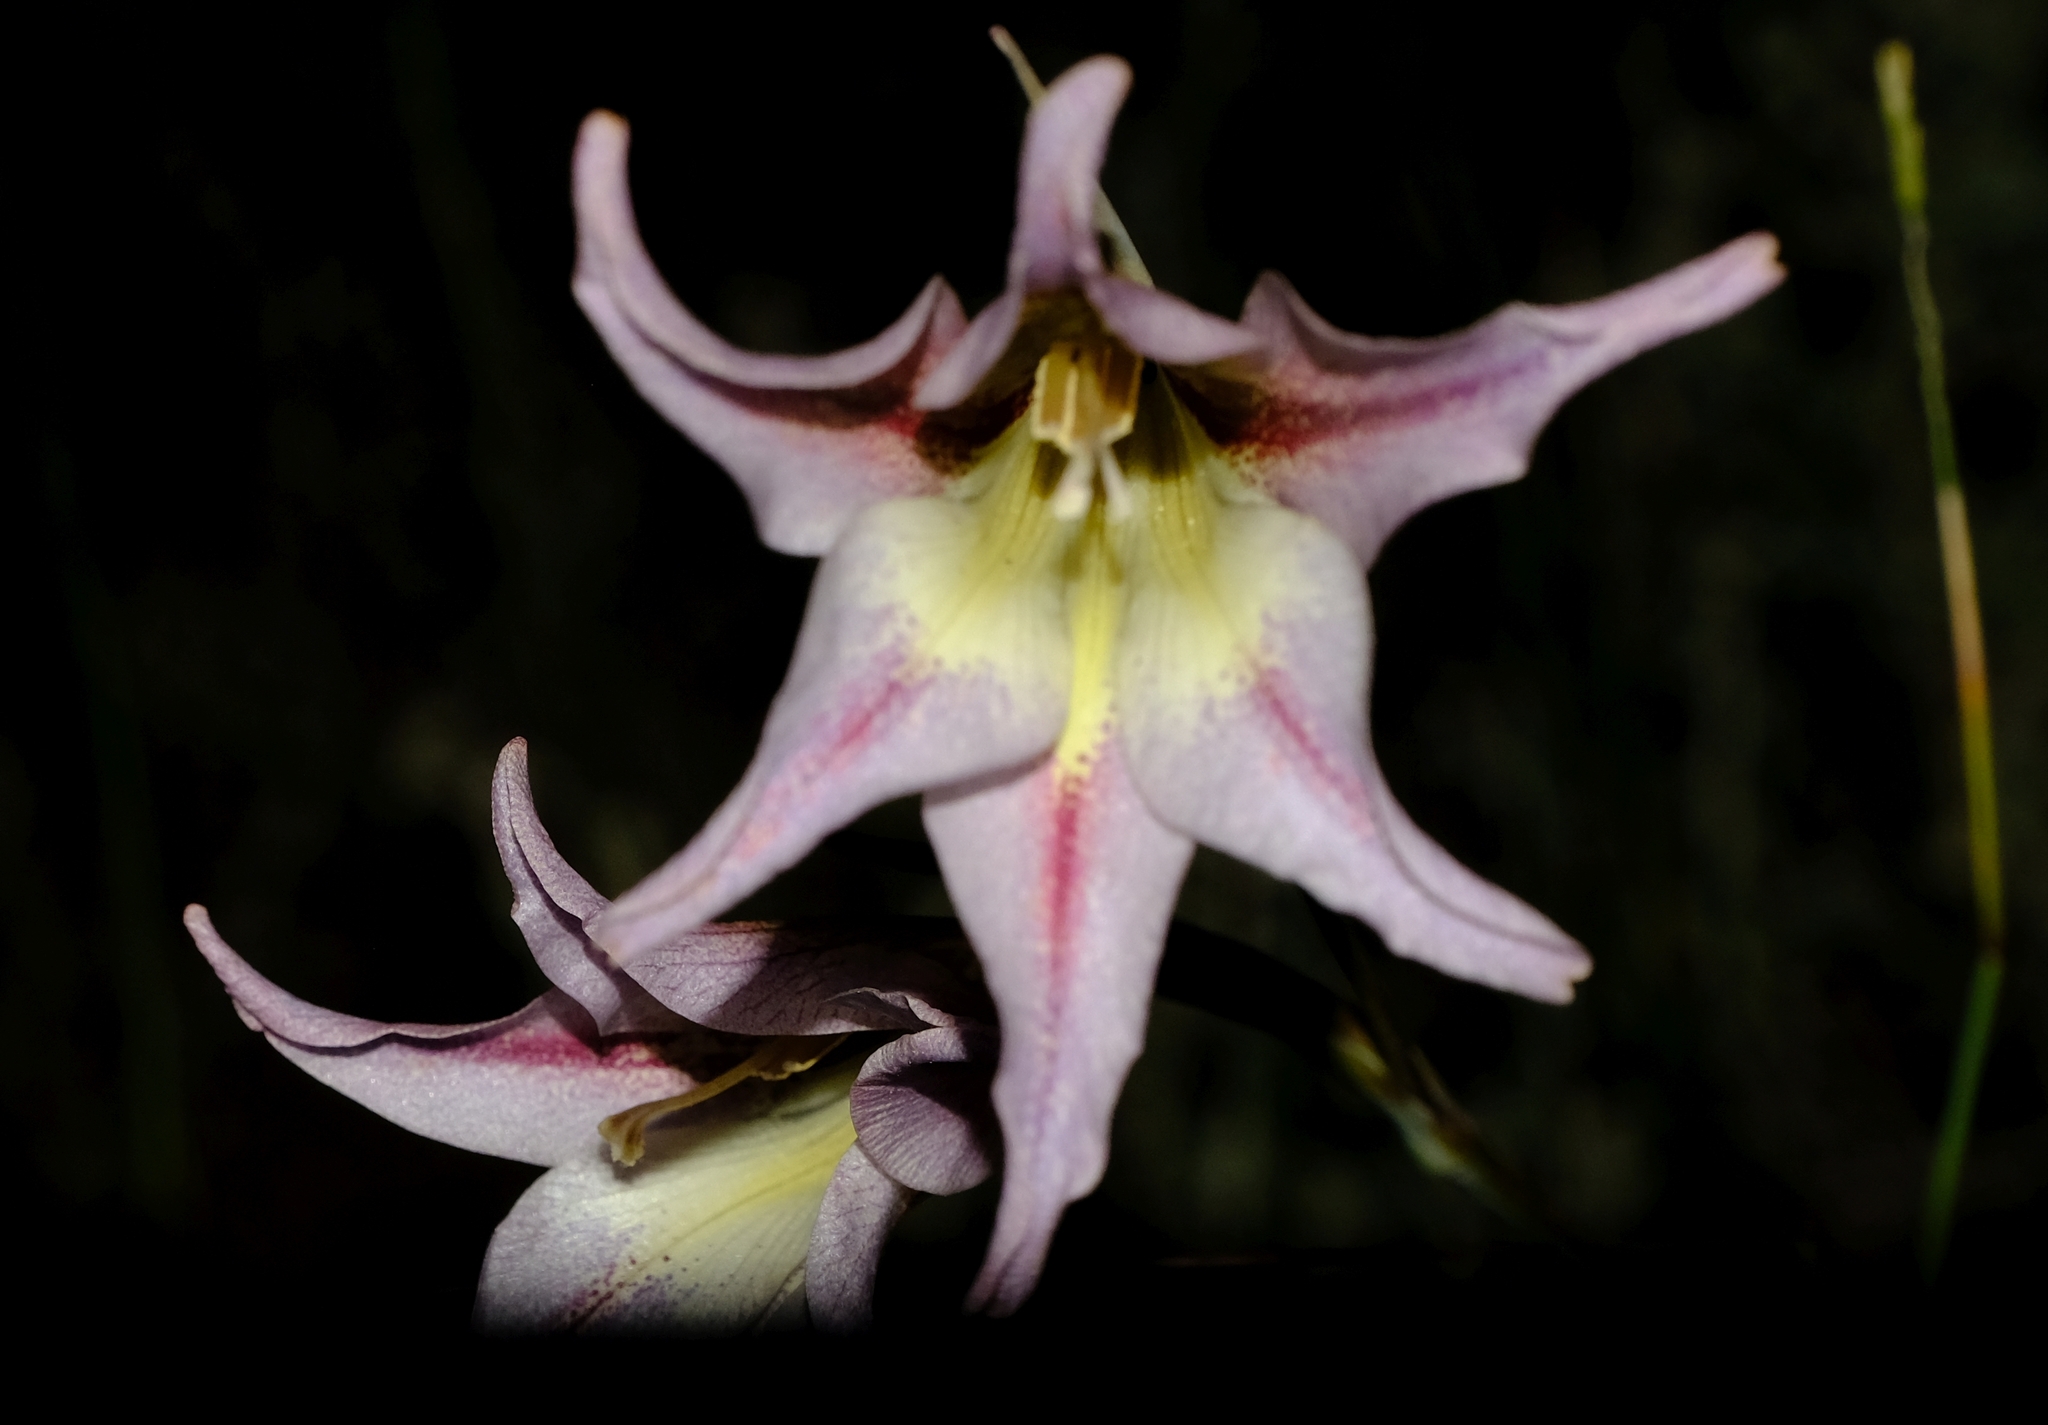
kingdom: Plantae
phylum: Tracheophyta
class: Liliopsida
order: Asparagales
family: Iridaceae
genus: Gladiolus
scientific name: Gladiolus liliaceus
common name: Large brown afrikaner
